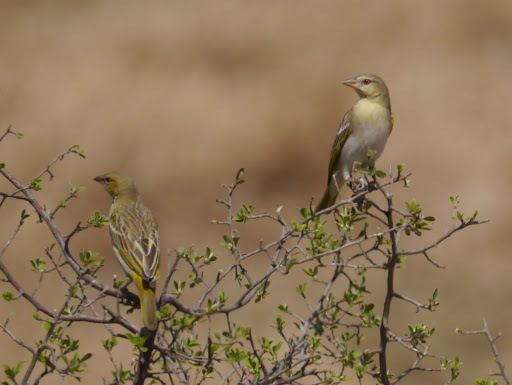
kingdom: Animalia
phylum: Chordata
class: Aves
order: Passeriformes
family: Ploceidae
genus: Ploceus
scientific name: Ploceus velatus
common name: Southern masked weaver
